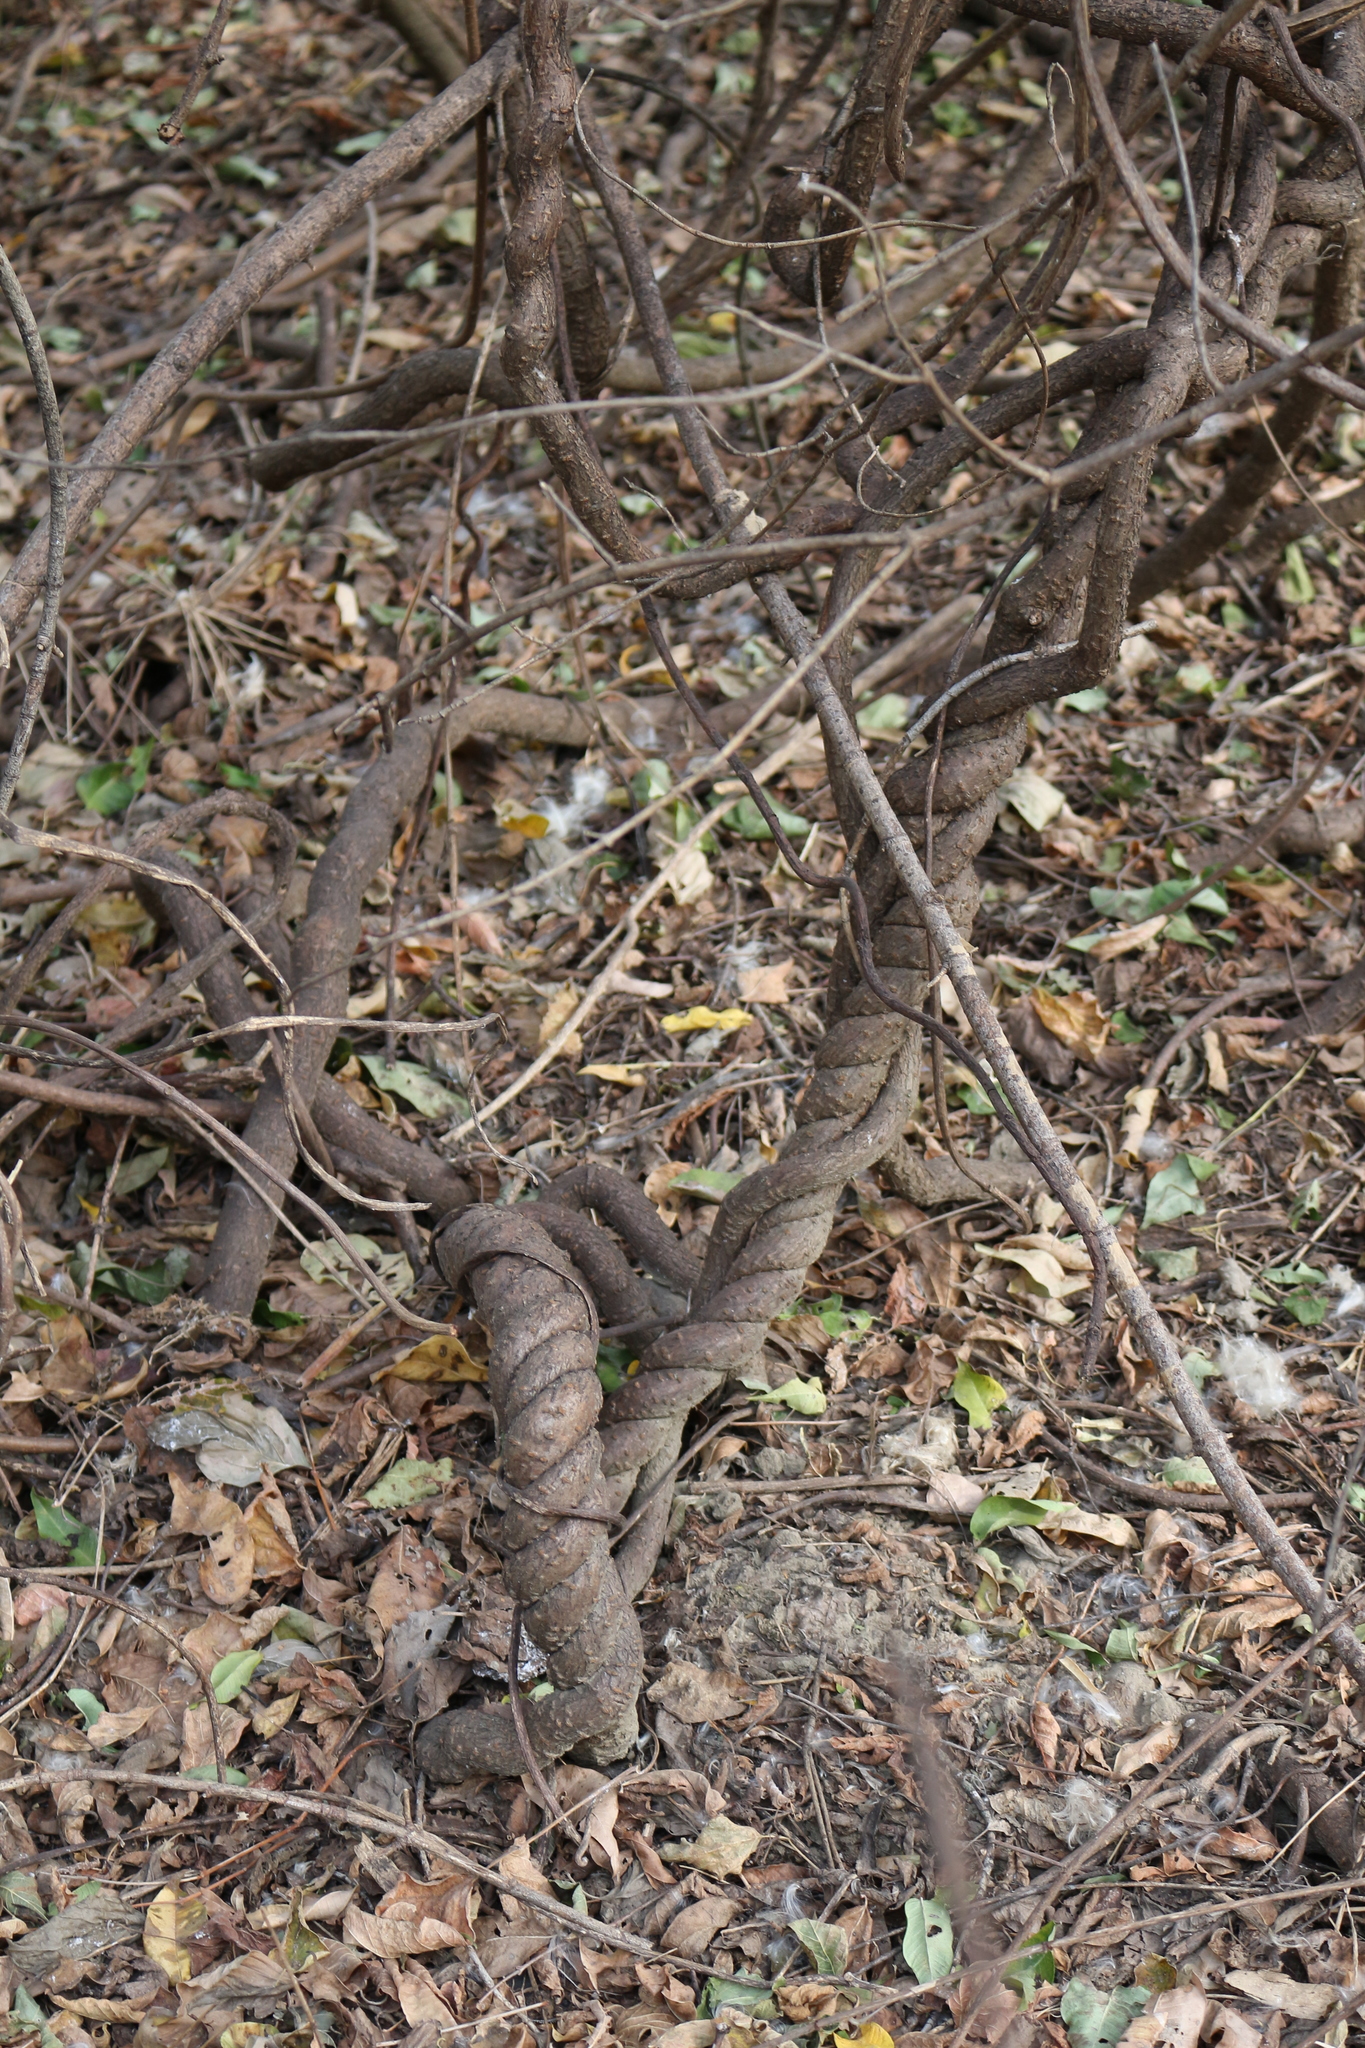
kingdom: Plantae
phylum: Tracheophyta
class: Magnoliopsida
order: Gentianales
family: Apocynaceae
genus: Periploca
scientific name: Periploca graeca
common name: Silkvine
